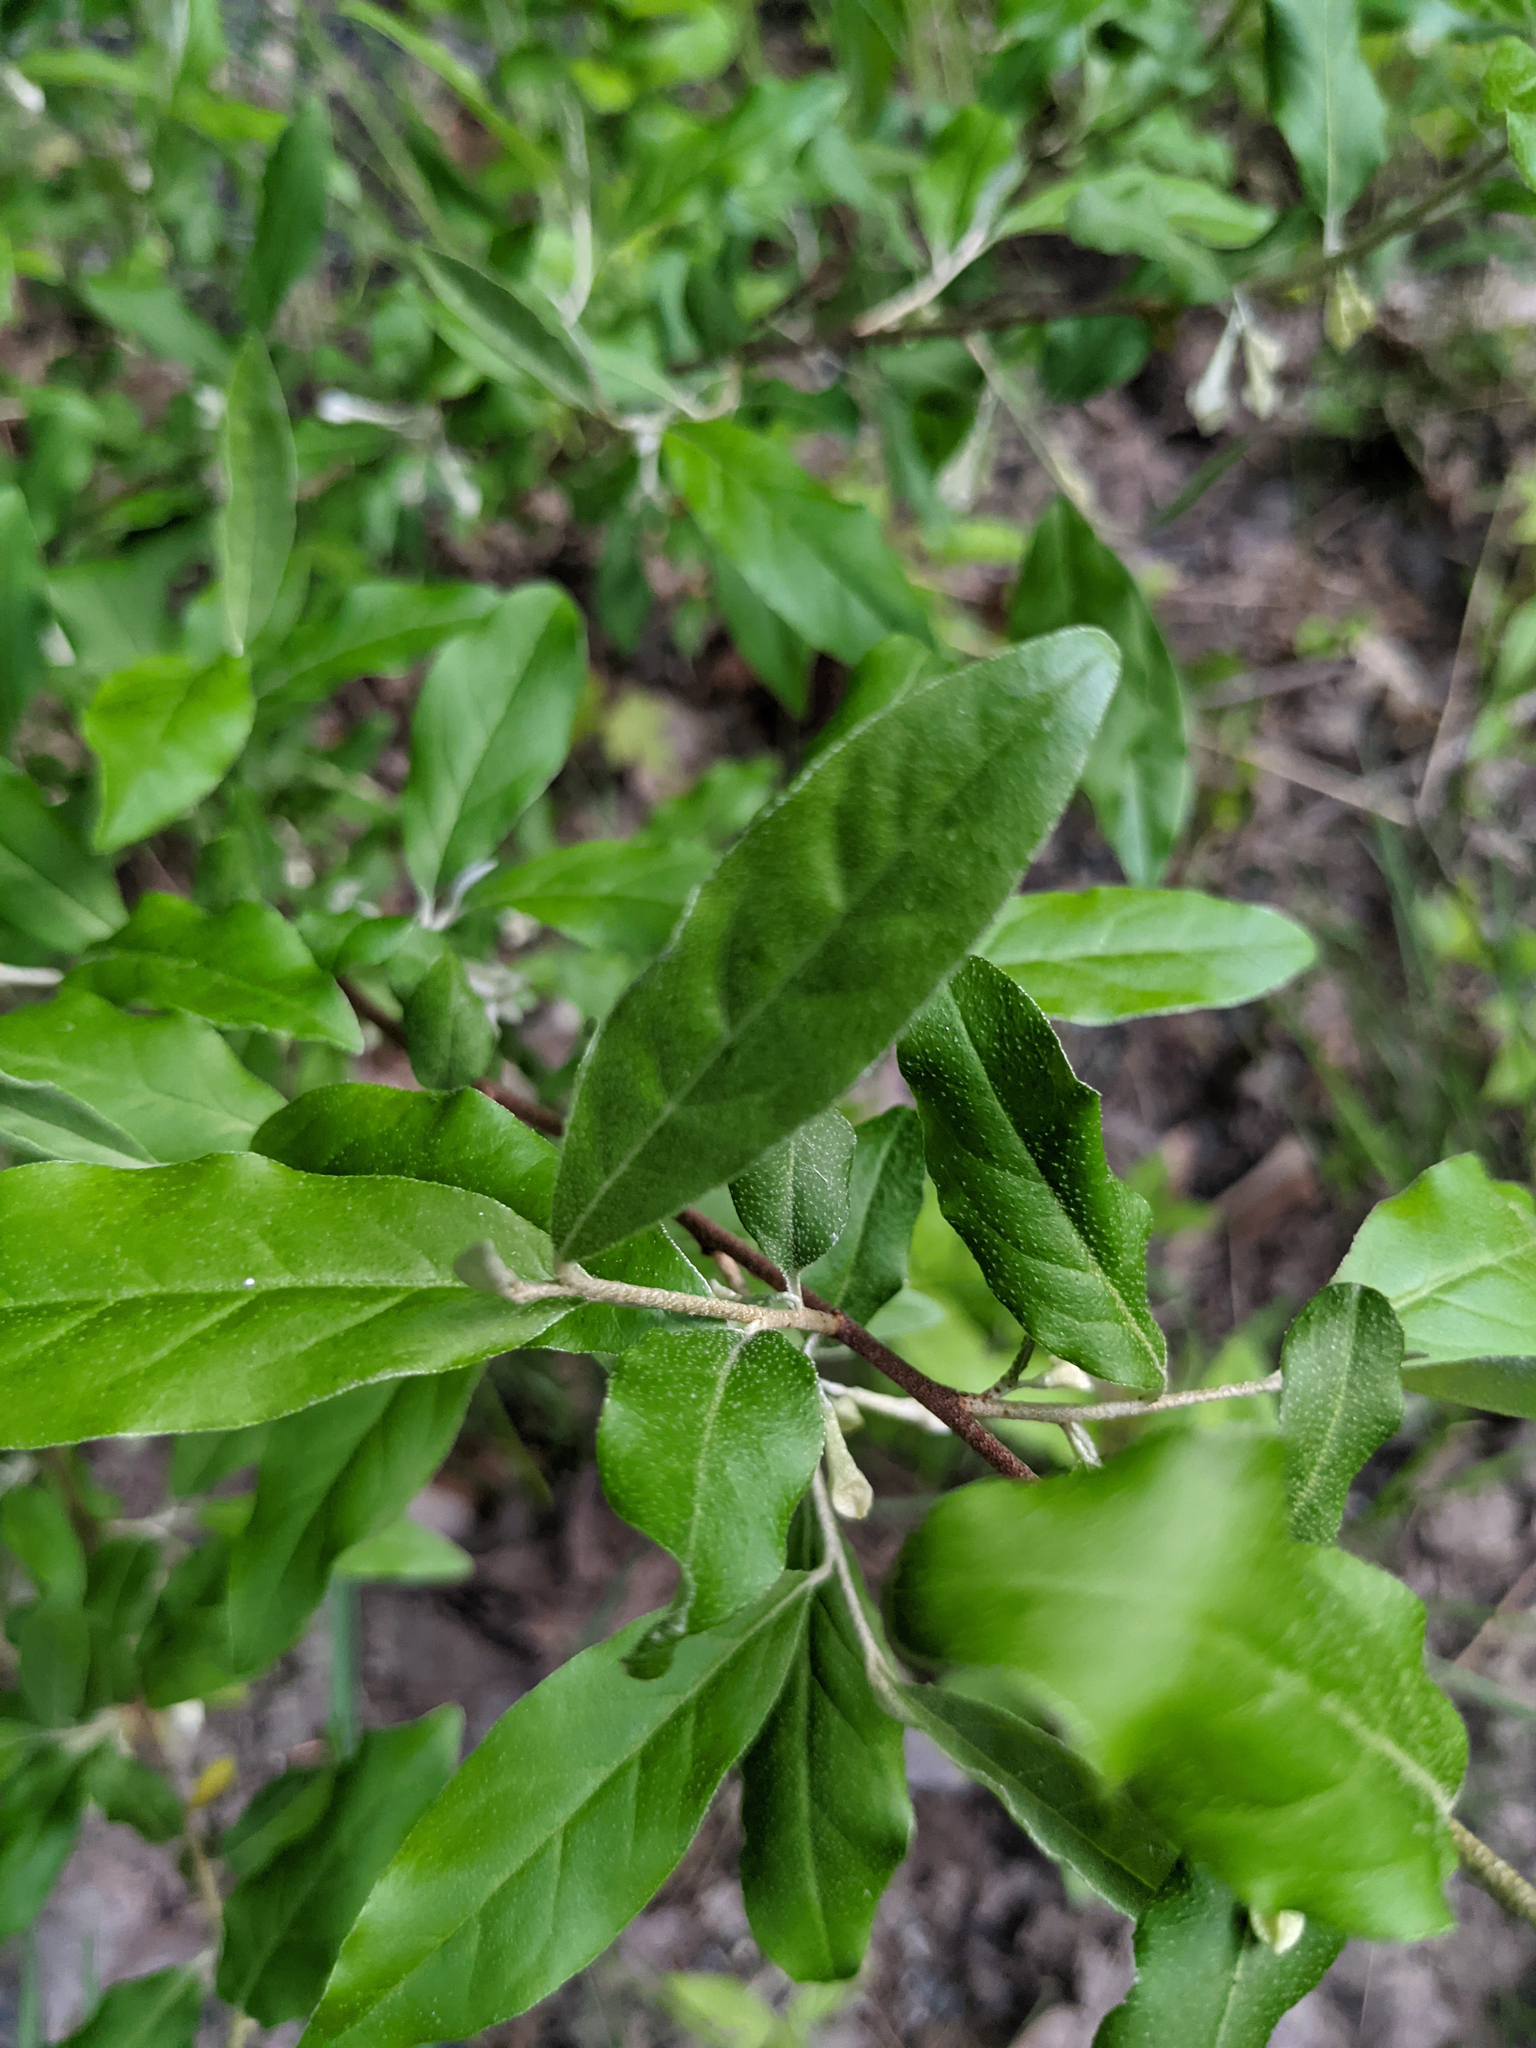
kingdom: Plantae
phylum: Tracheophyta
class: Magnoliopsida
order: Rosales
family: Elaeagnaceae
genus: Elaeagnus
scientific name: Elaeagnus umbellata
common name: Autumn olive
